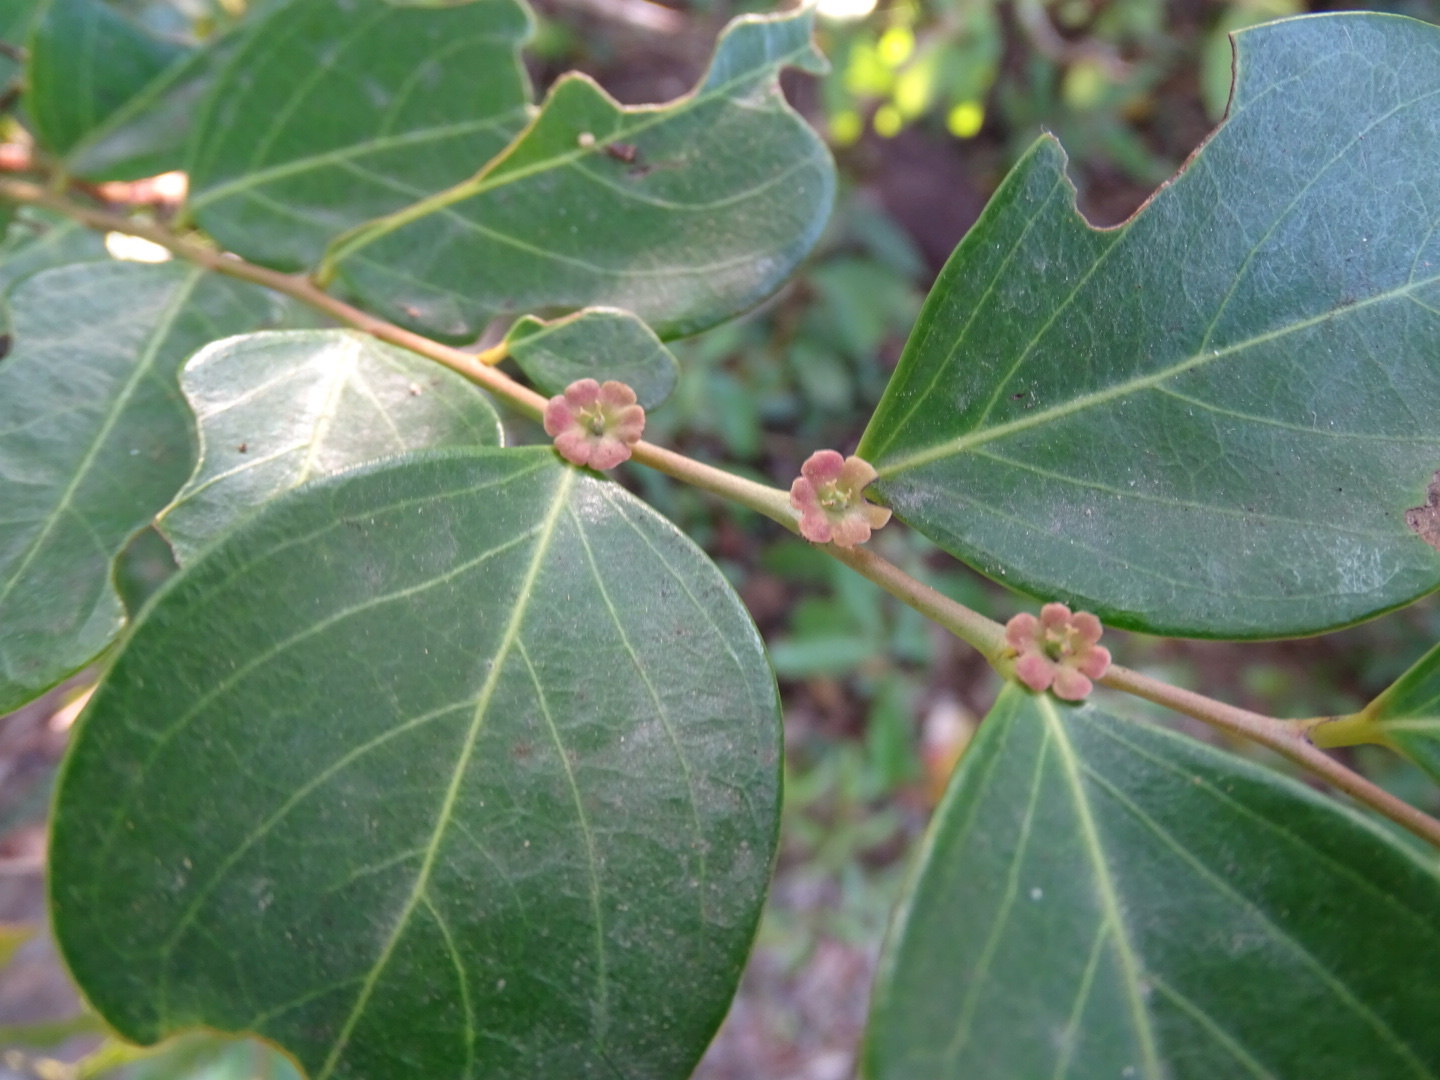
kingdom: Plantae
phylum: Tracheophyta
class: Magnoliopsida
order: Malpighiales
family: Phyllanthaceae
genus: Breynia
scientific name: Breynia fruticosa
